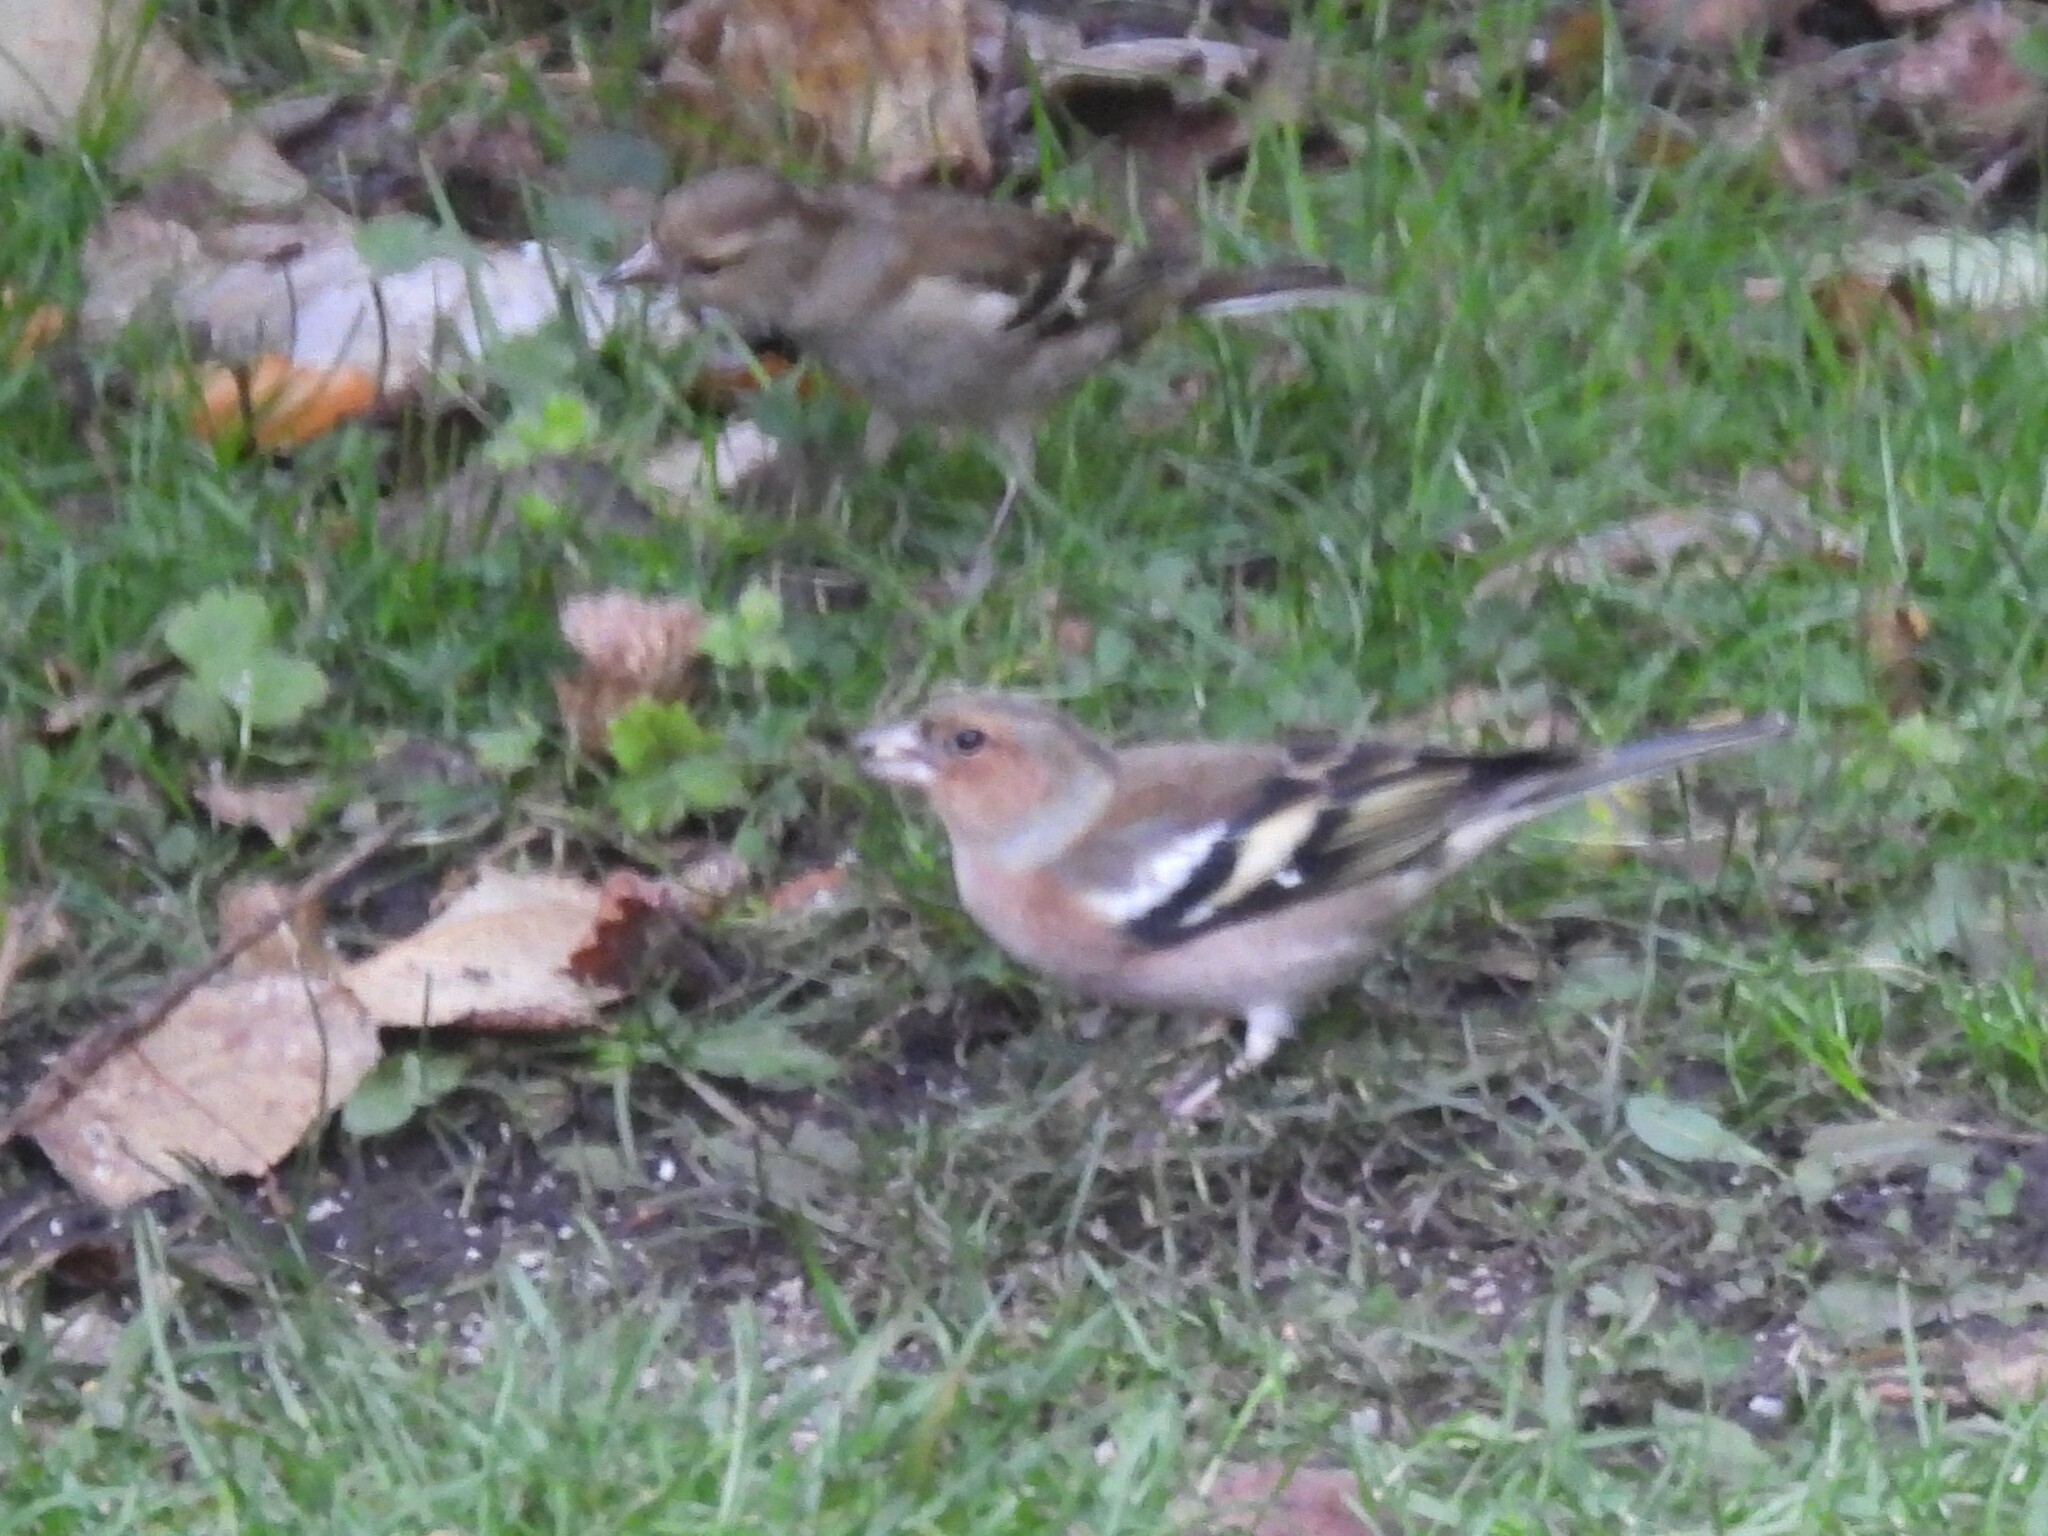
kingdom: Animalia
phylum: Chordata
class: Aves
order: Passeriformes
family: Fringillidae
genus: Fringilla
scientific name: Fringilla coelebs
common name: Common chaffinch
